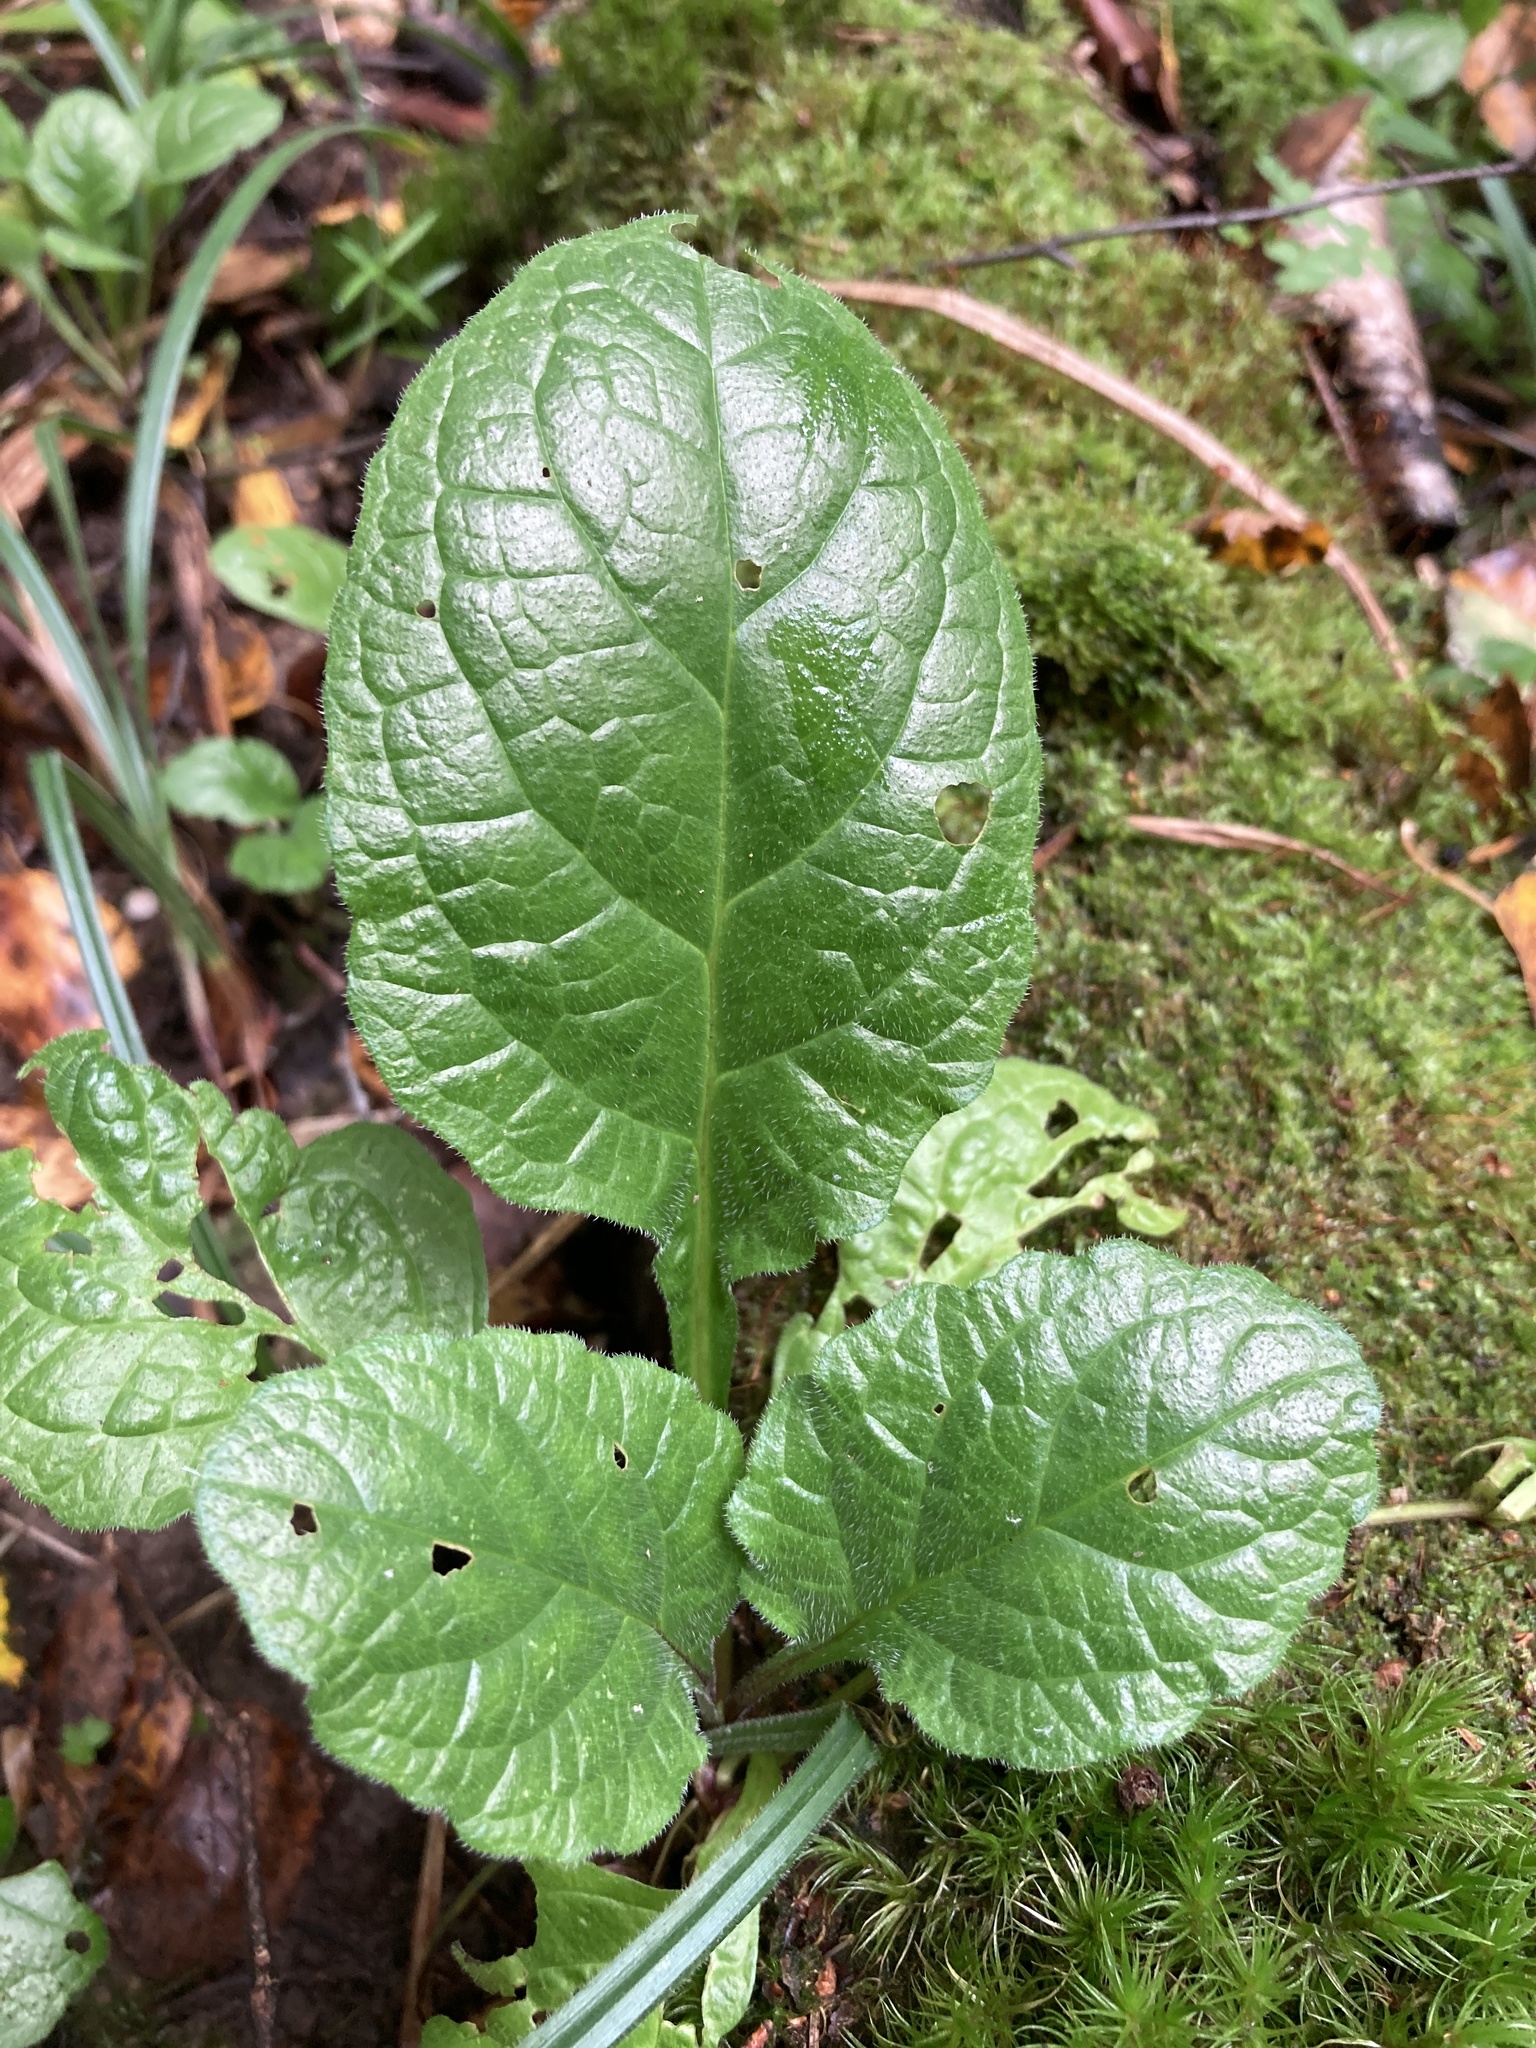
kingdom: Plantae
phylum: Tracheophyta
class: Magnoliopsida
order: Lamiales
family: Lamiaceae
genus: Ajuga
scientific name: Ajuga reptans
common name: Bugle
